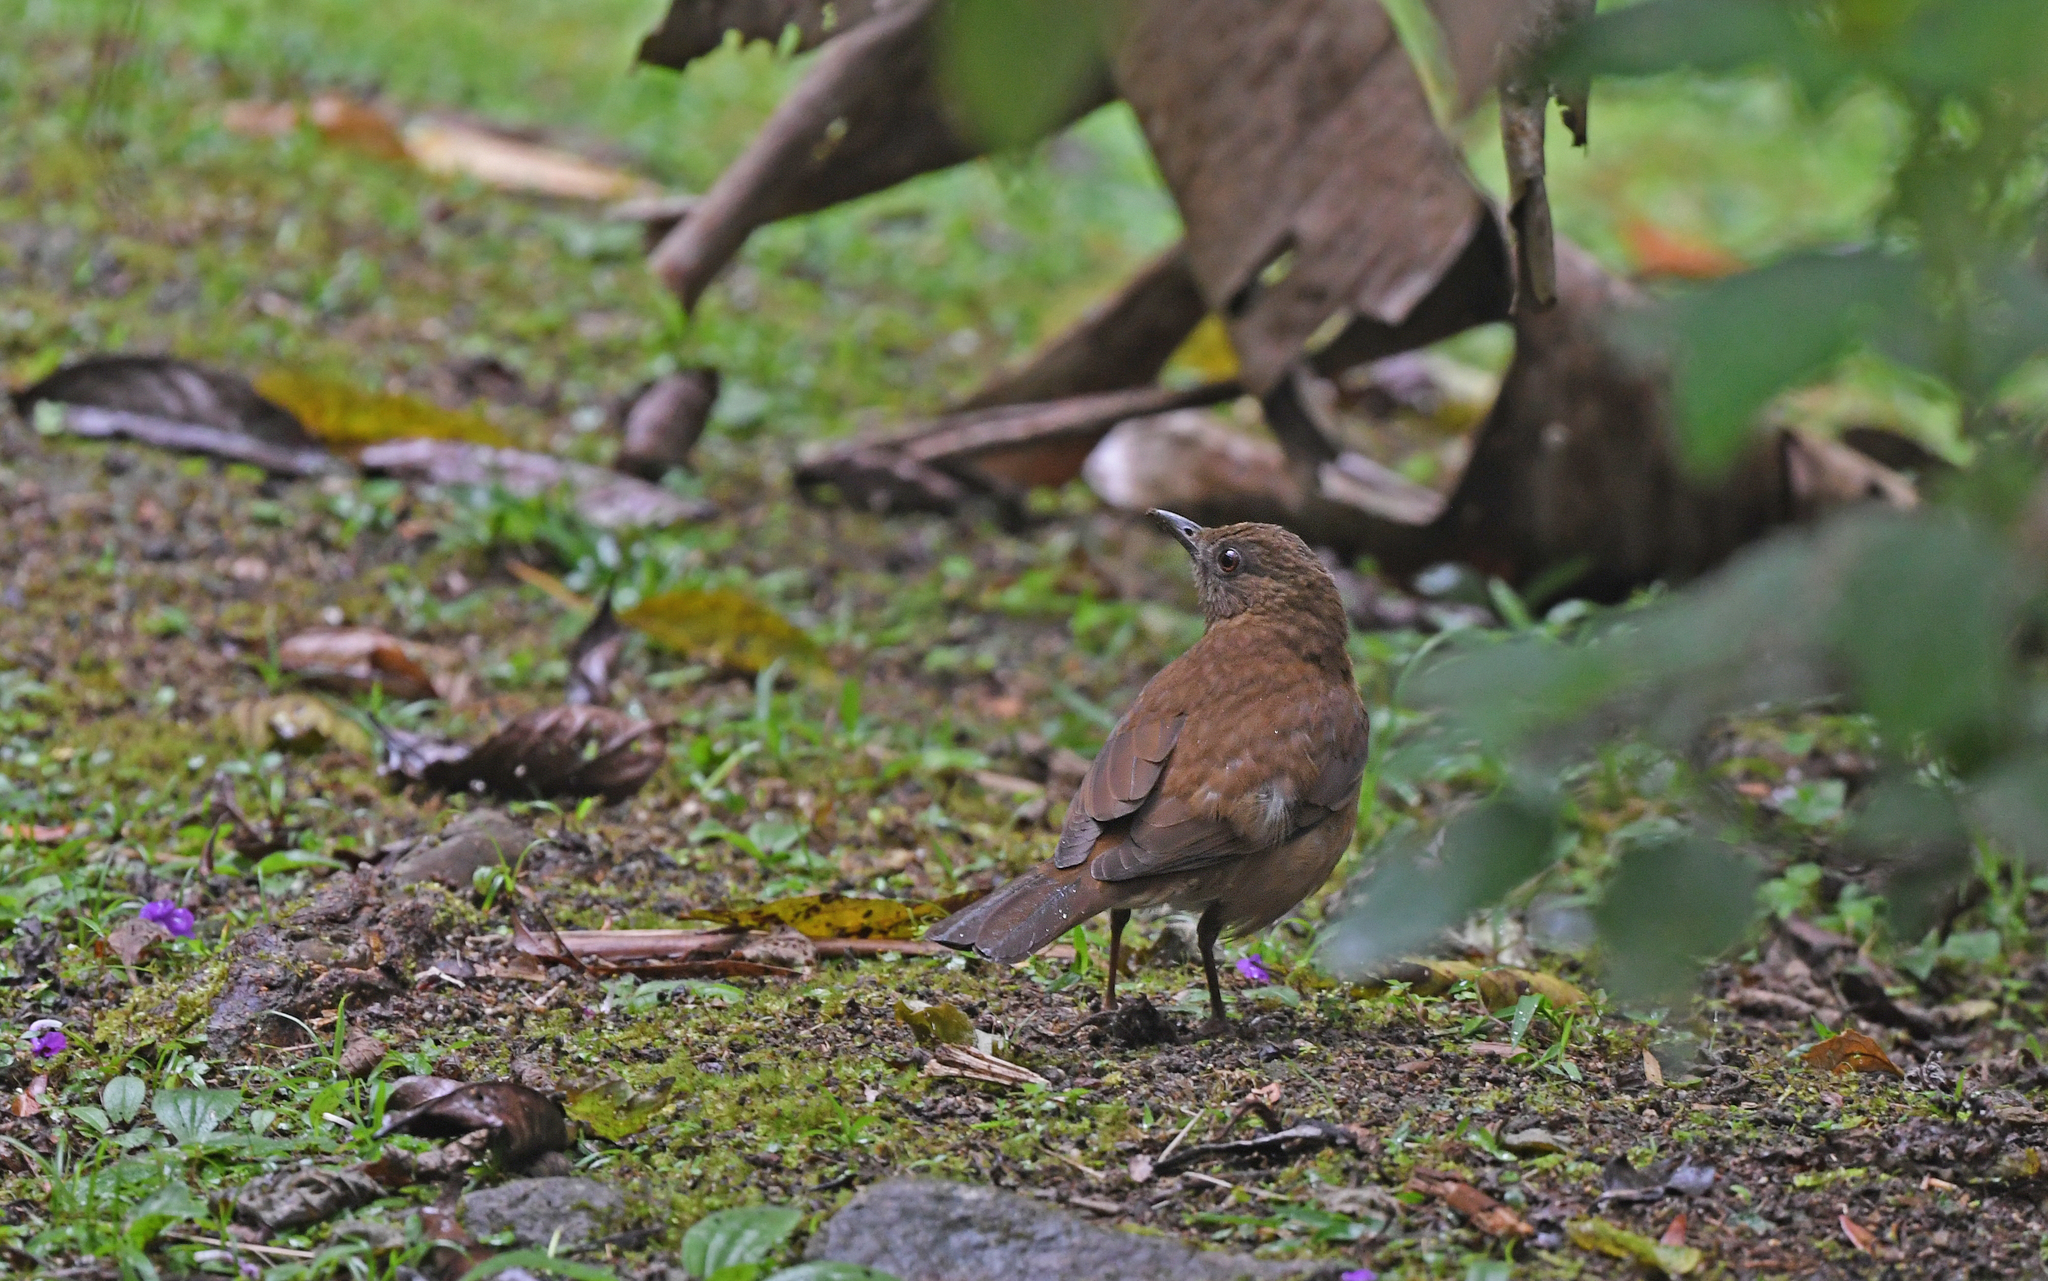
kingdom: Animalia
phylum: Chordata
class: Aves
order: Passeriformes
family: Turdidae
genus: Turdus
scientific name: Turdus hauxwelli
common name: Hauxwell's thrush
